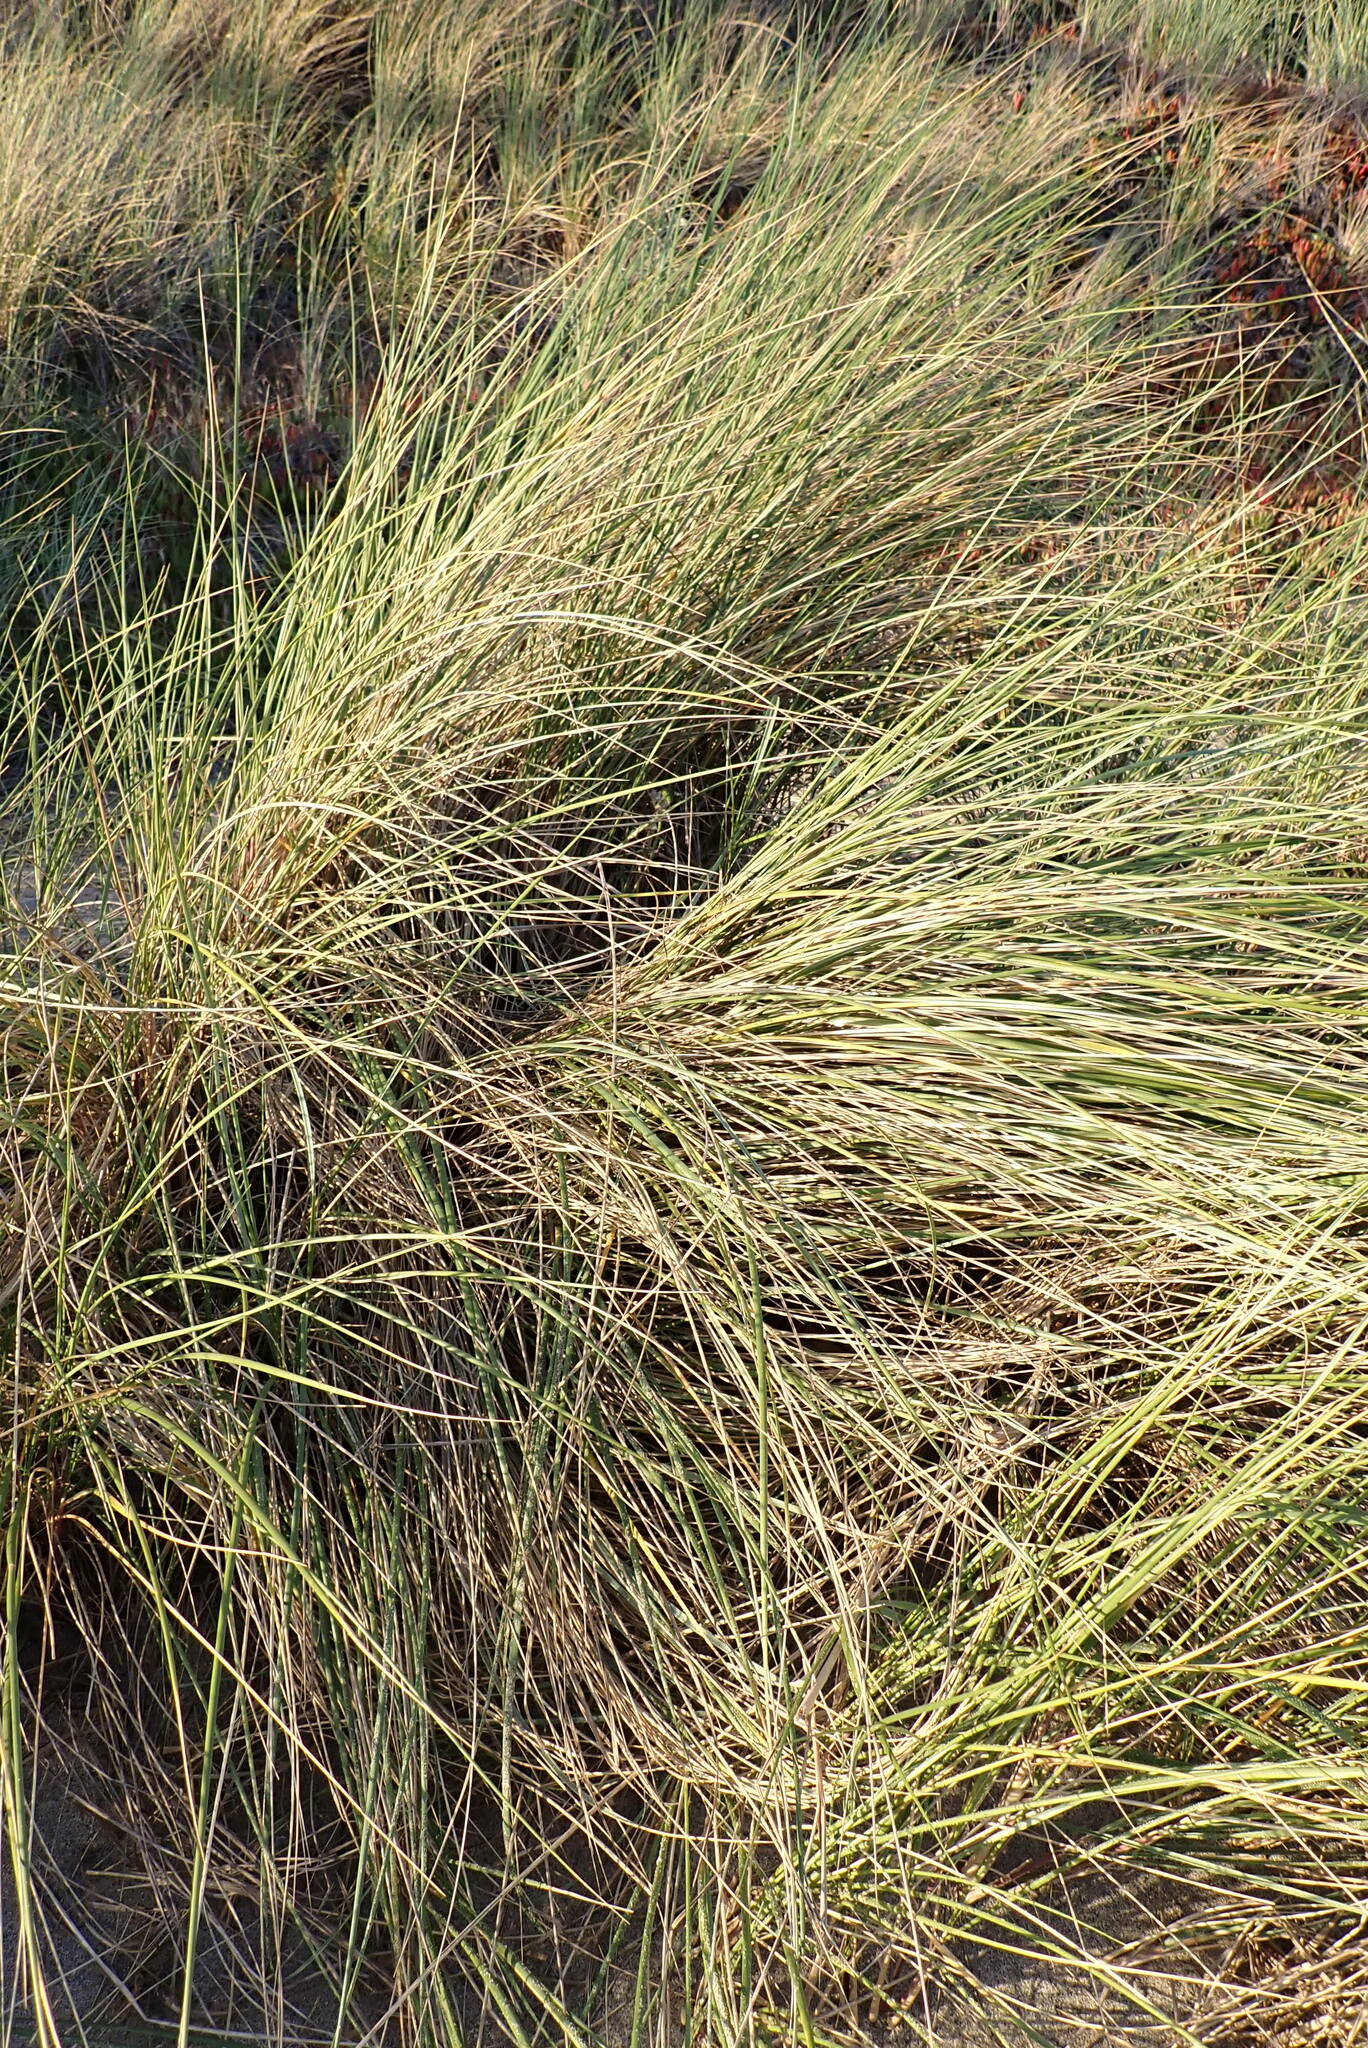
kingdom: Plantae
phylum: Tracheophyta
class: Liliopsida
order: Poales
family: Poaceae
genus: Calamagrostis
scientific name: Calamagrostis arenaria
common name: European beachgrass
